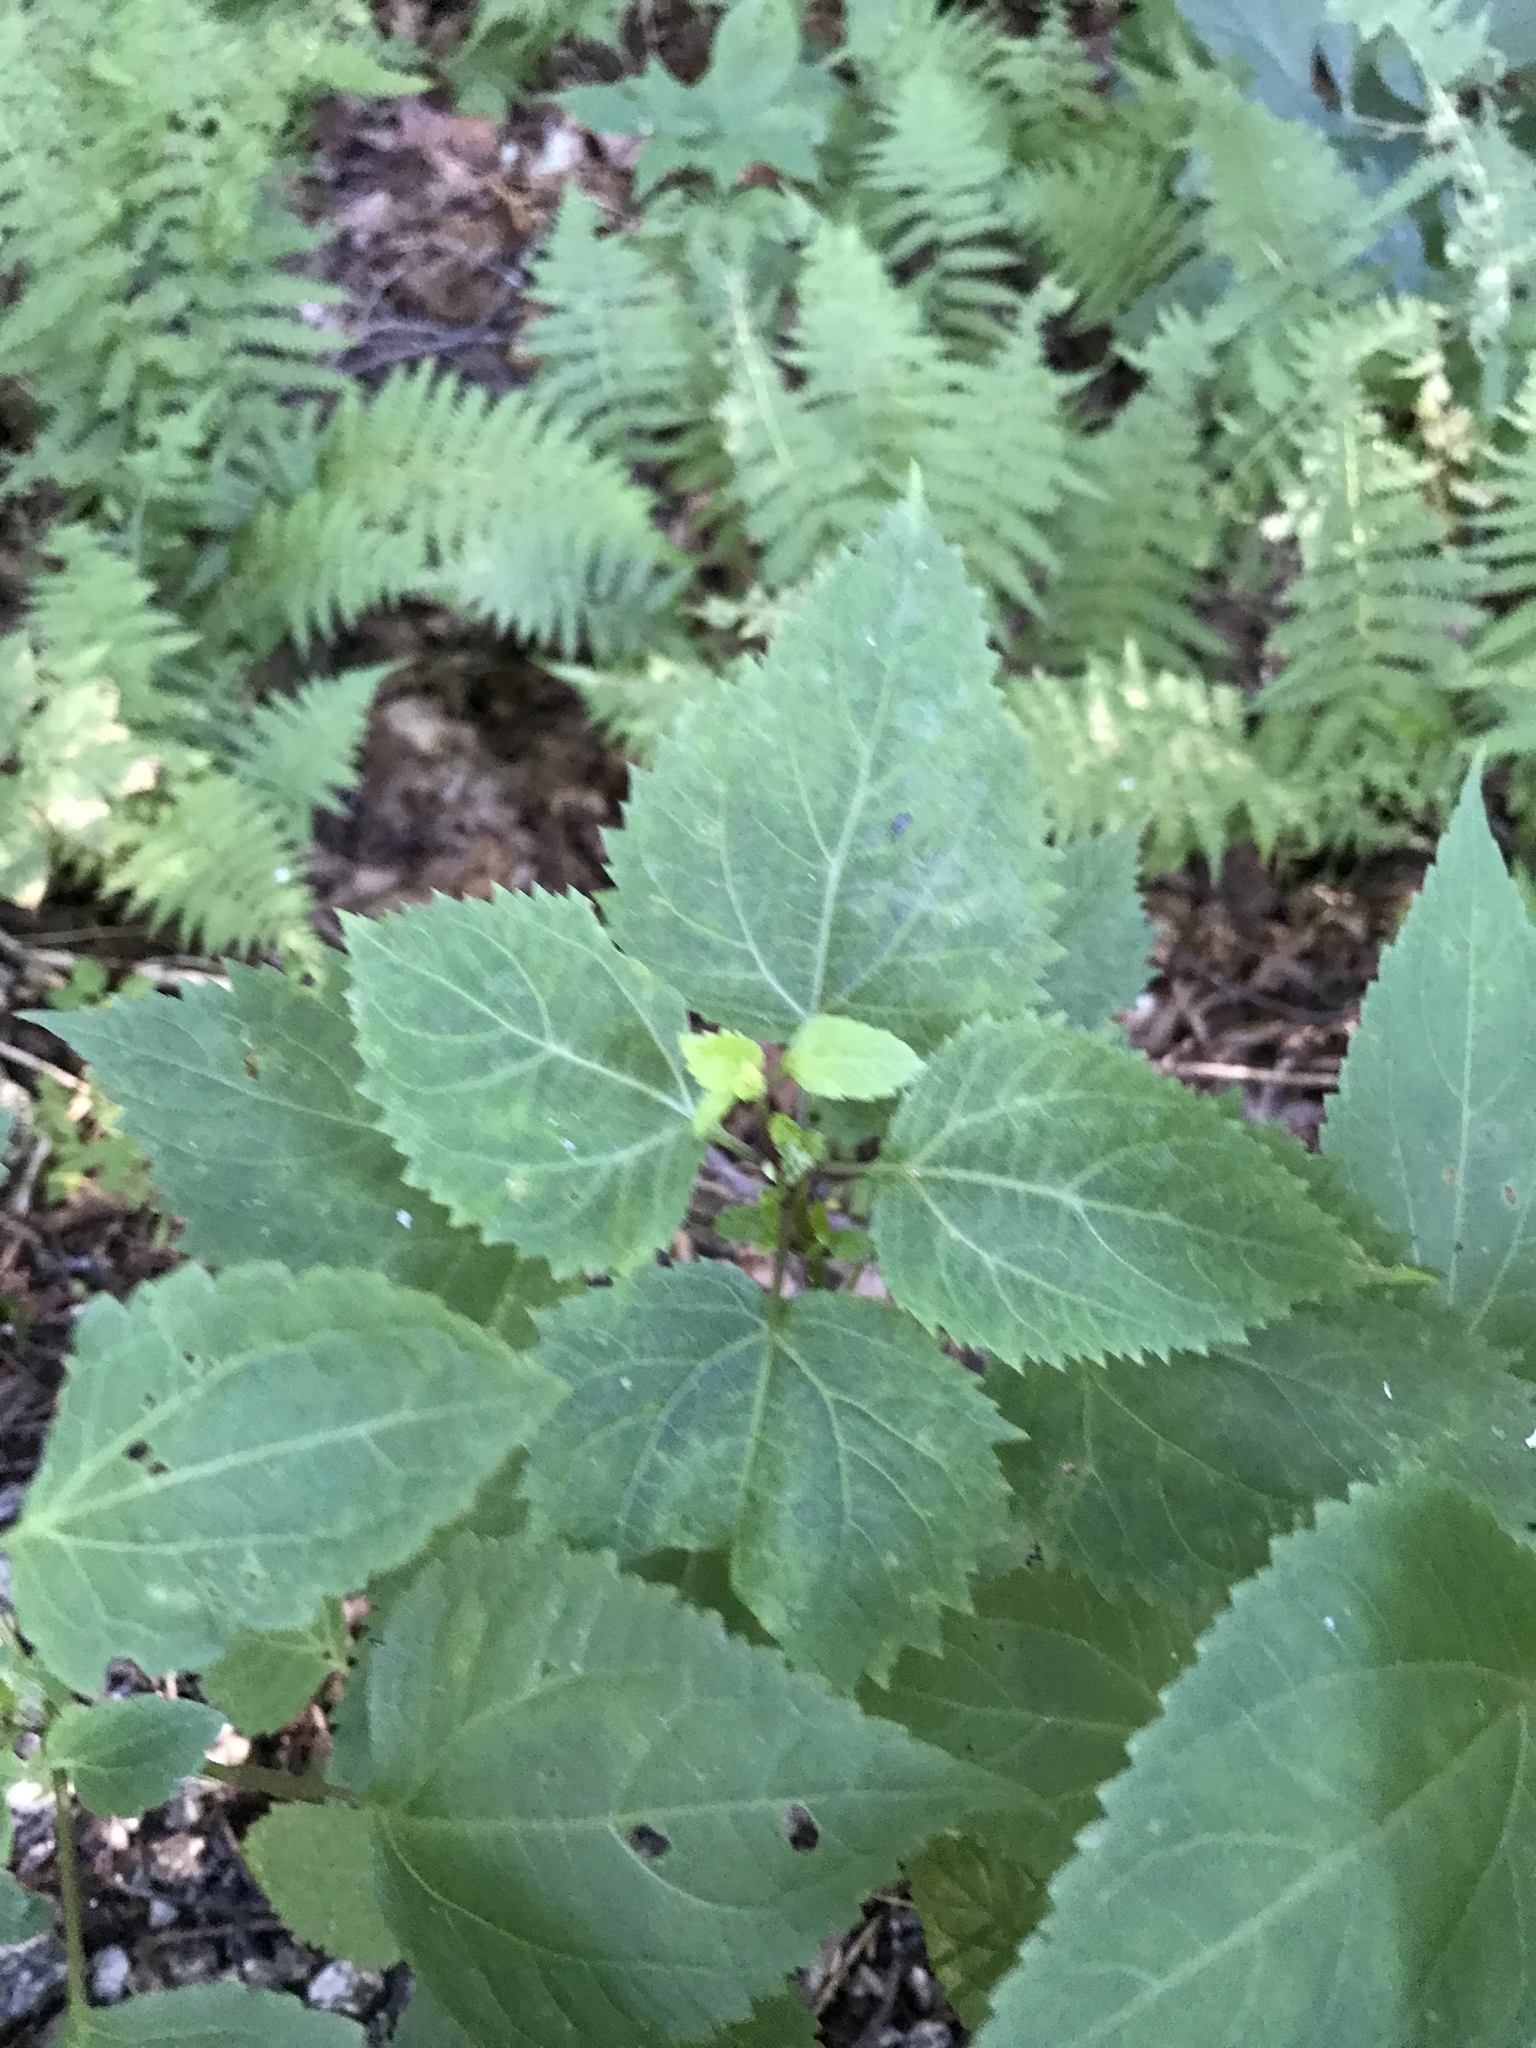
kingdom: Plantae
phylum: Tracheophyta
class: Magnoliopsida
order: Asterales
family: Asteraceae
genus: Ageratina
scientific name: Ageratina altissima
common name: White snakeroot
